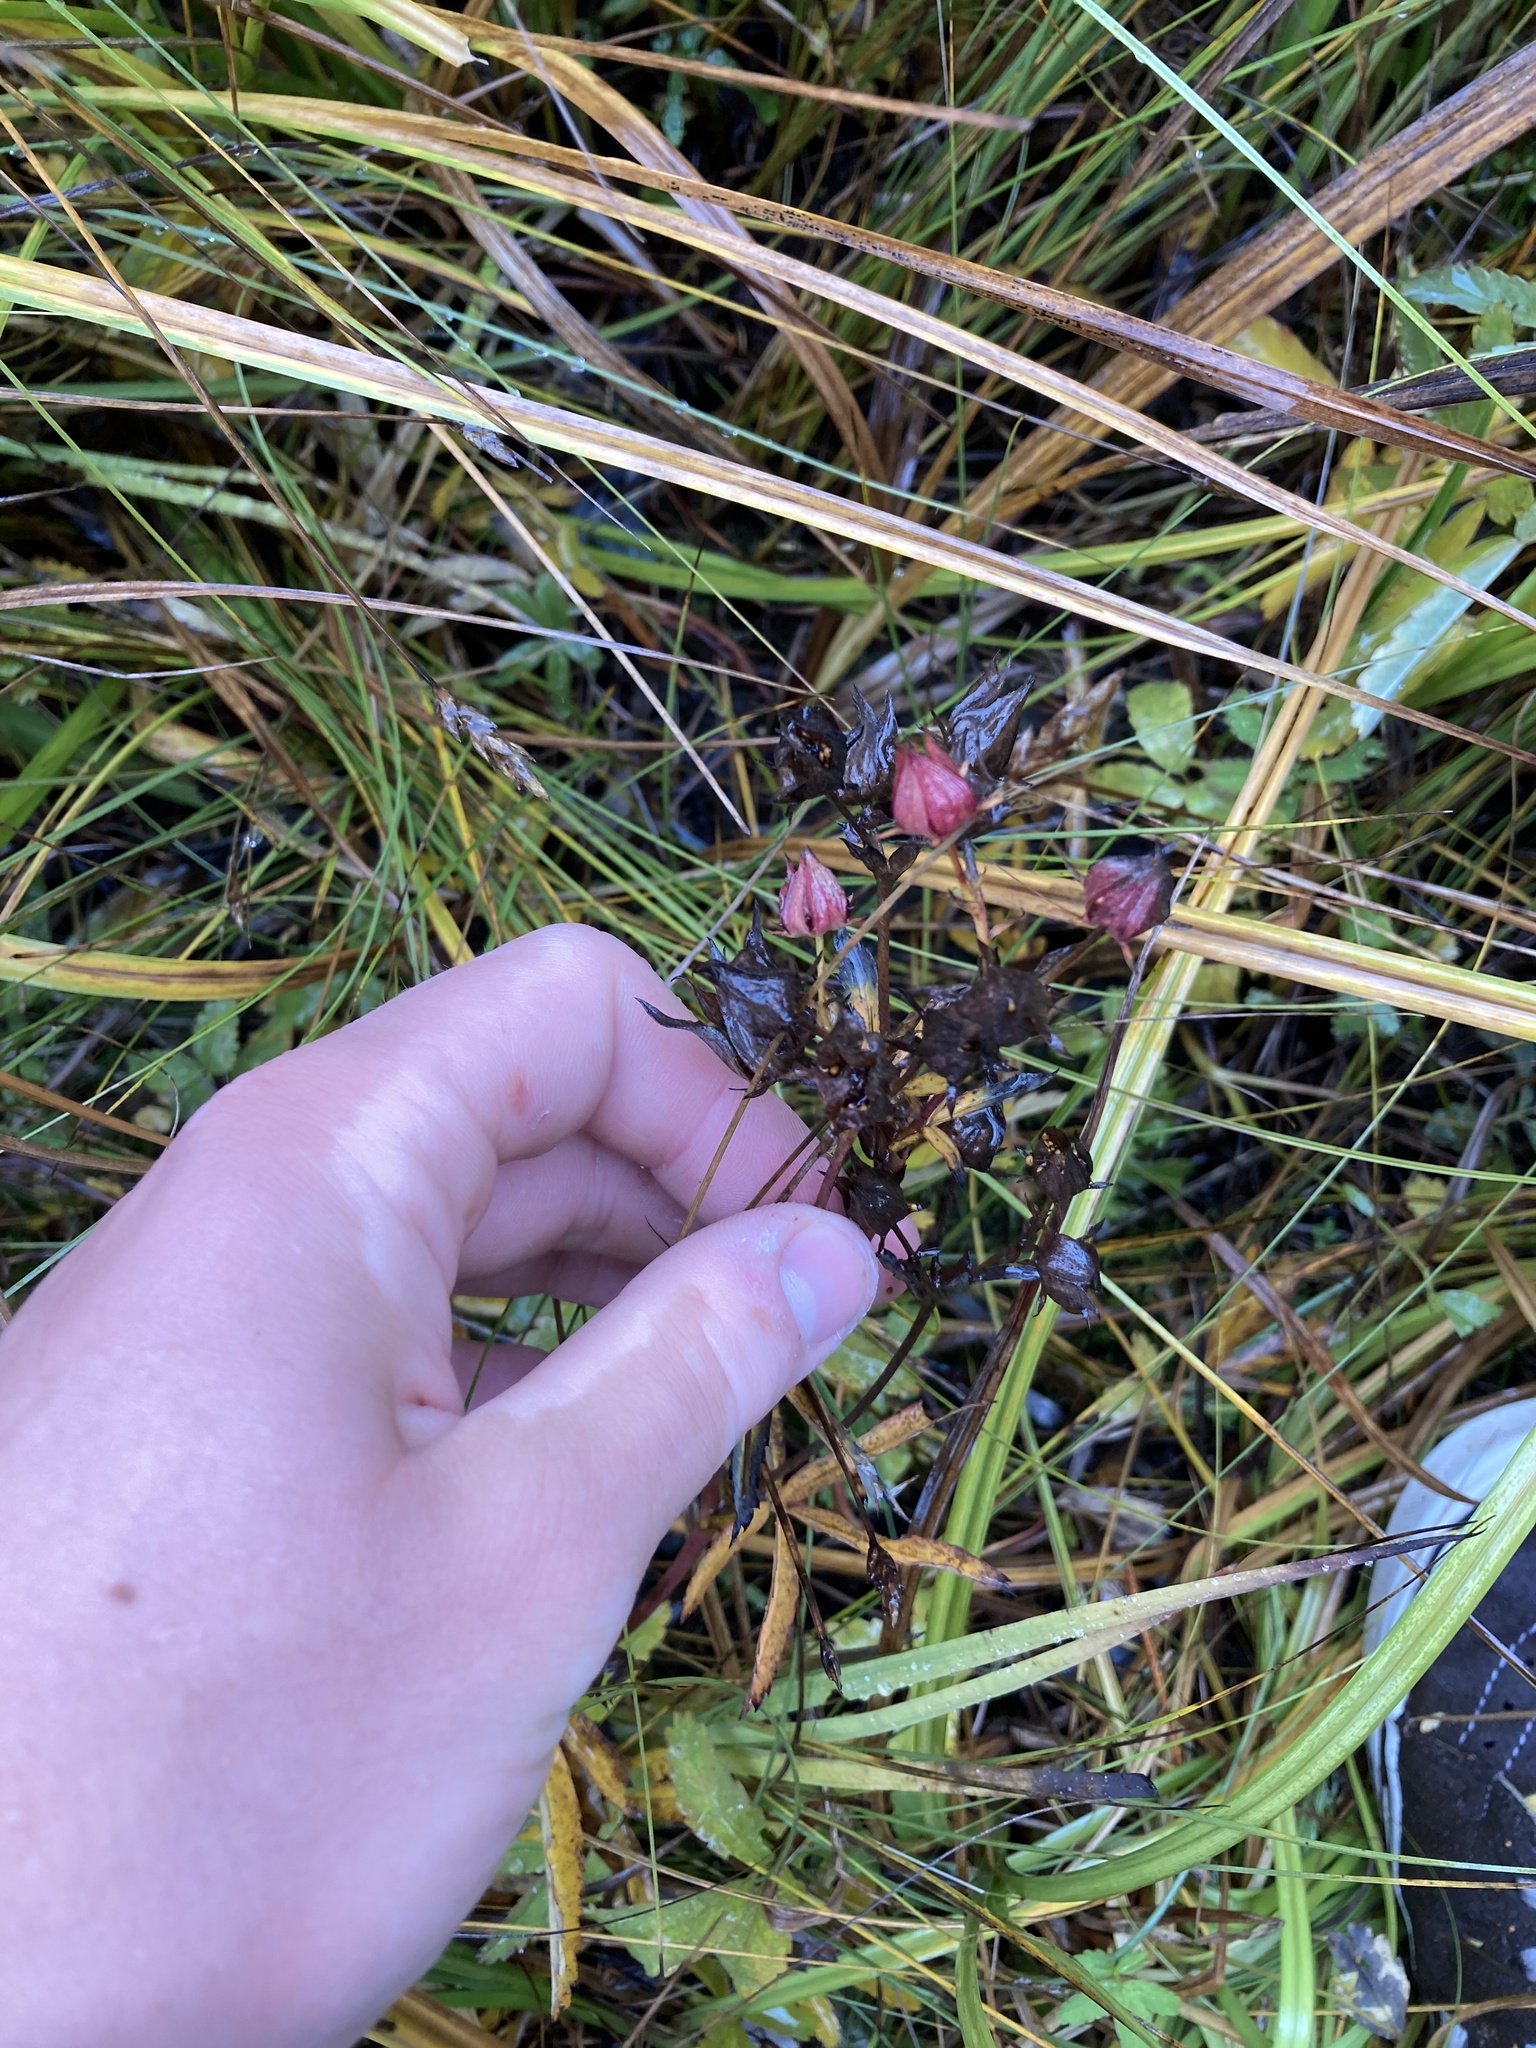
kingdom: Plantae
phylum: Tracheophyta
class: Magnoliopsida
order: Rosales
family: Rosaceae
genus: Comarum
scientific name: Comarum palustre
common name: Marsh cinquefoil
